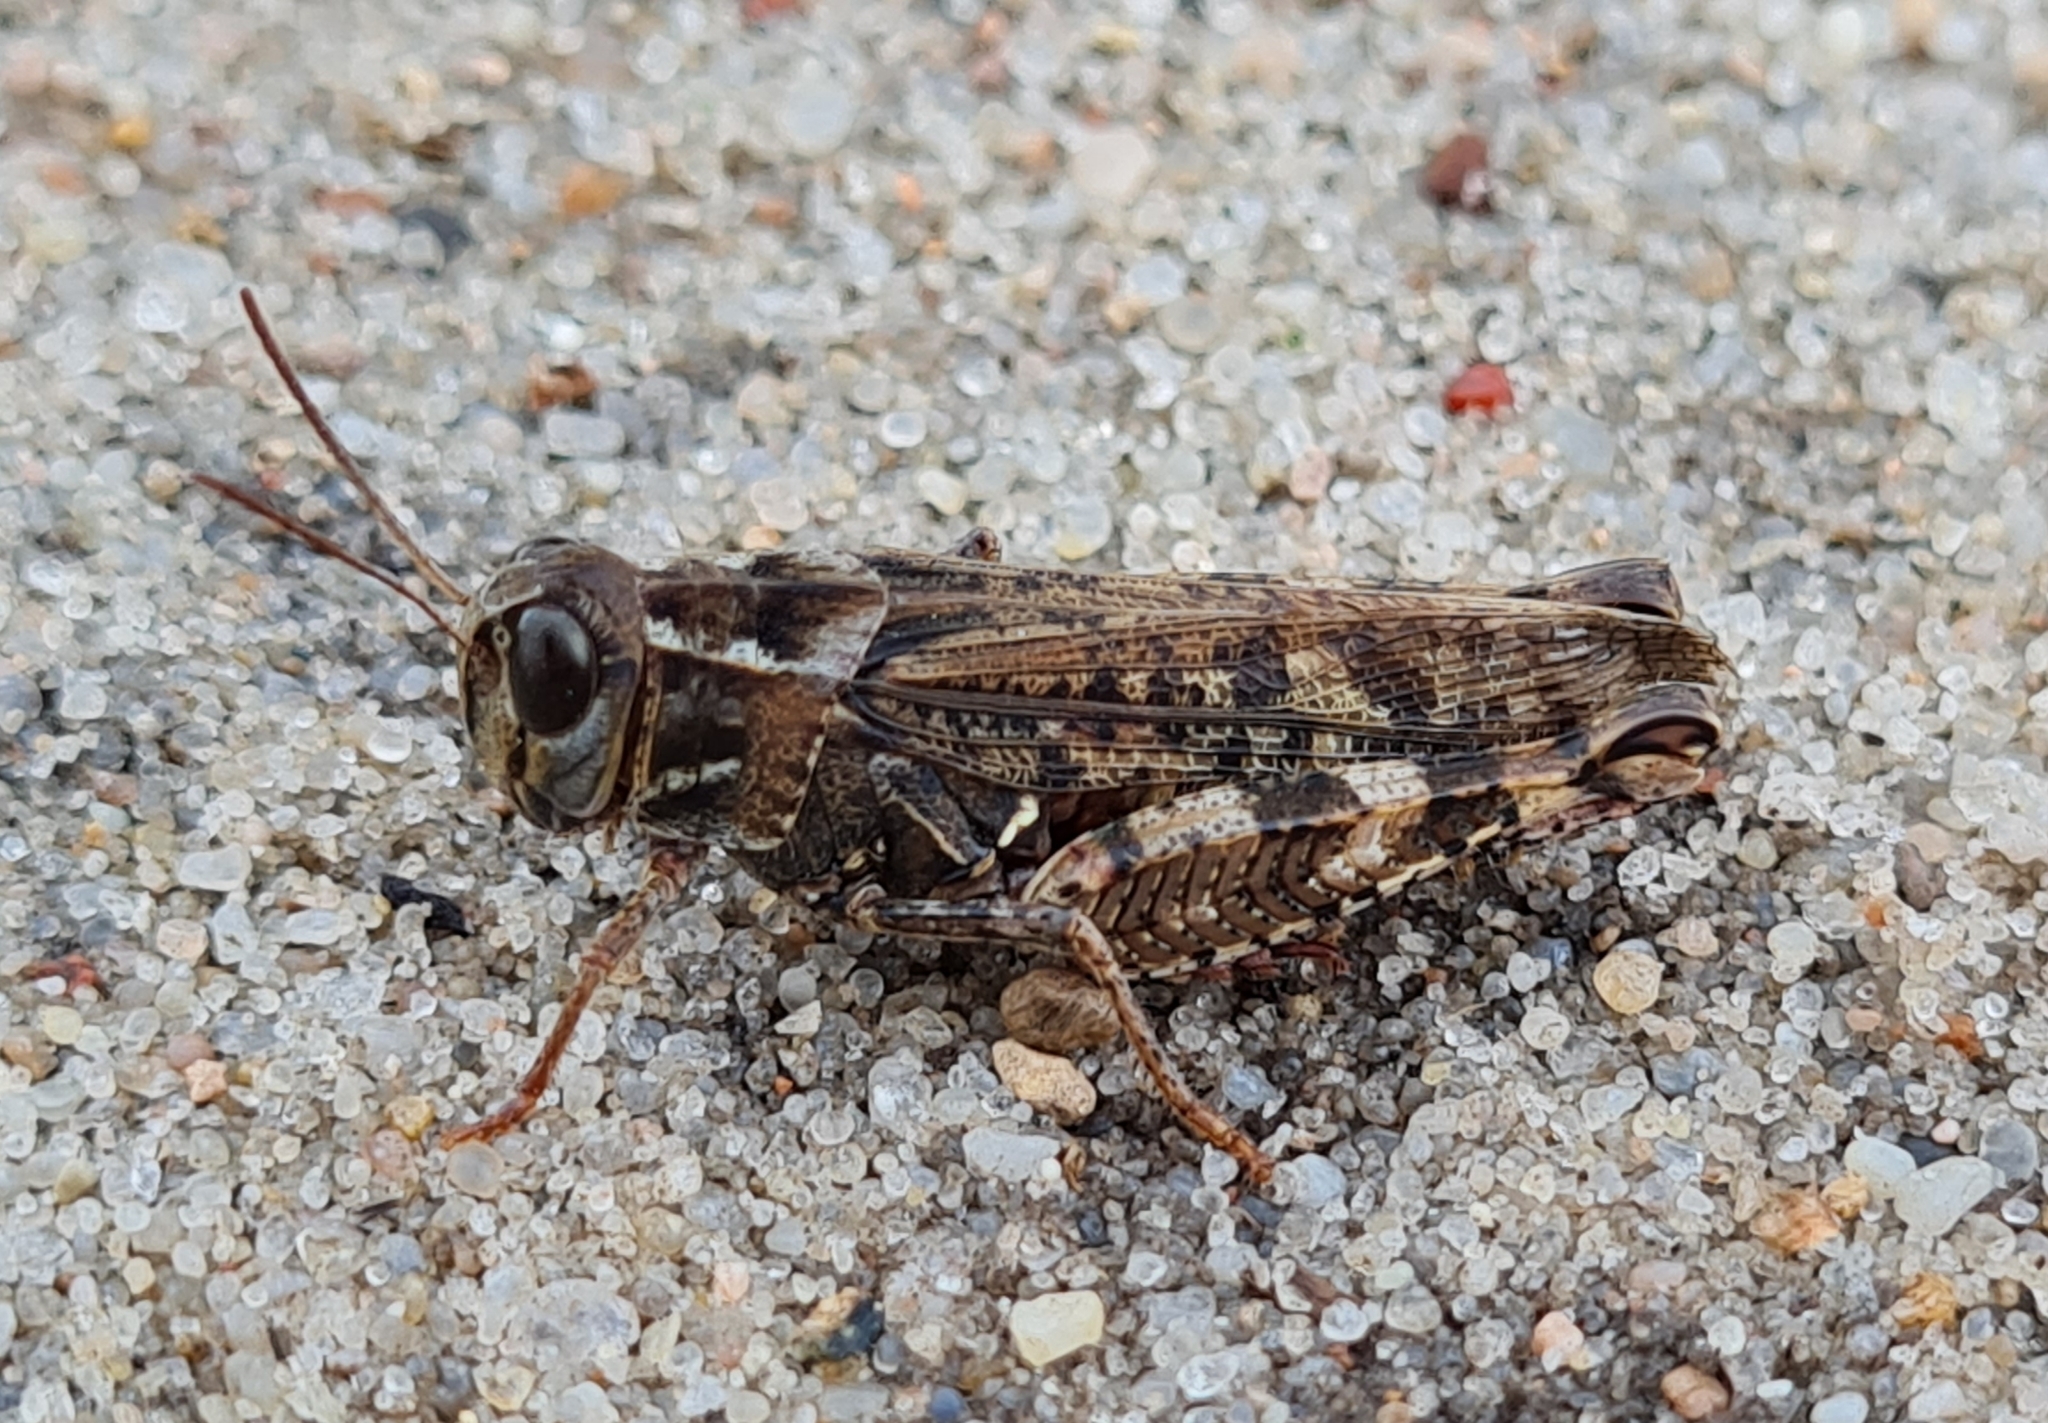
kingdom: Animalia
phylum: Arthropoda
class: Insecta
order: Orthoptera
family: Acrididae
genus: Calliptamus
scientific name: Calliptamus italicus
